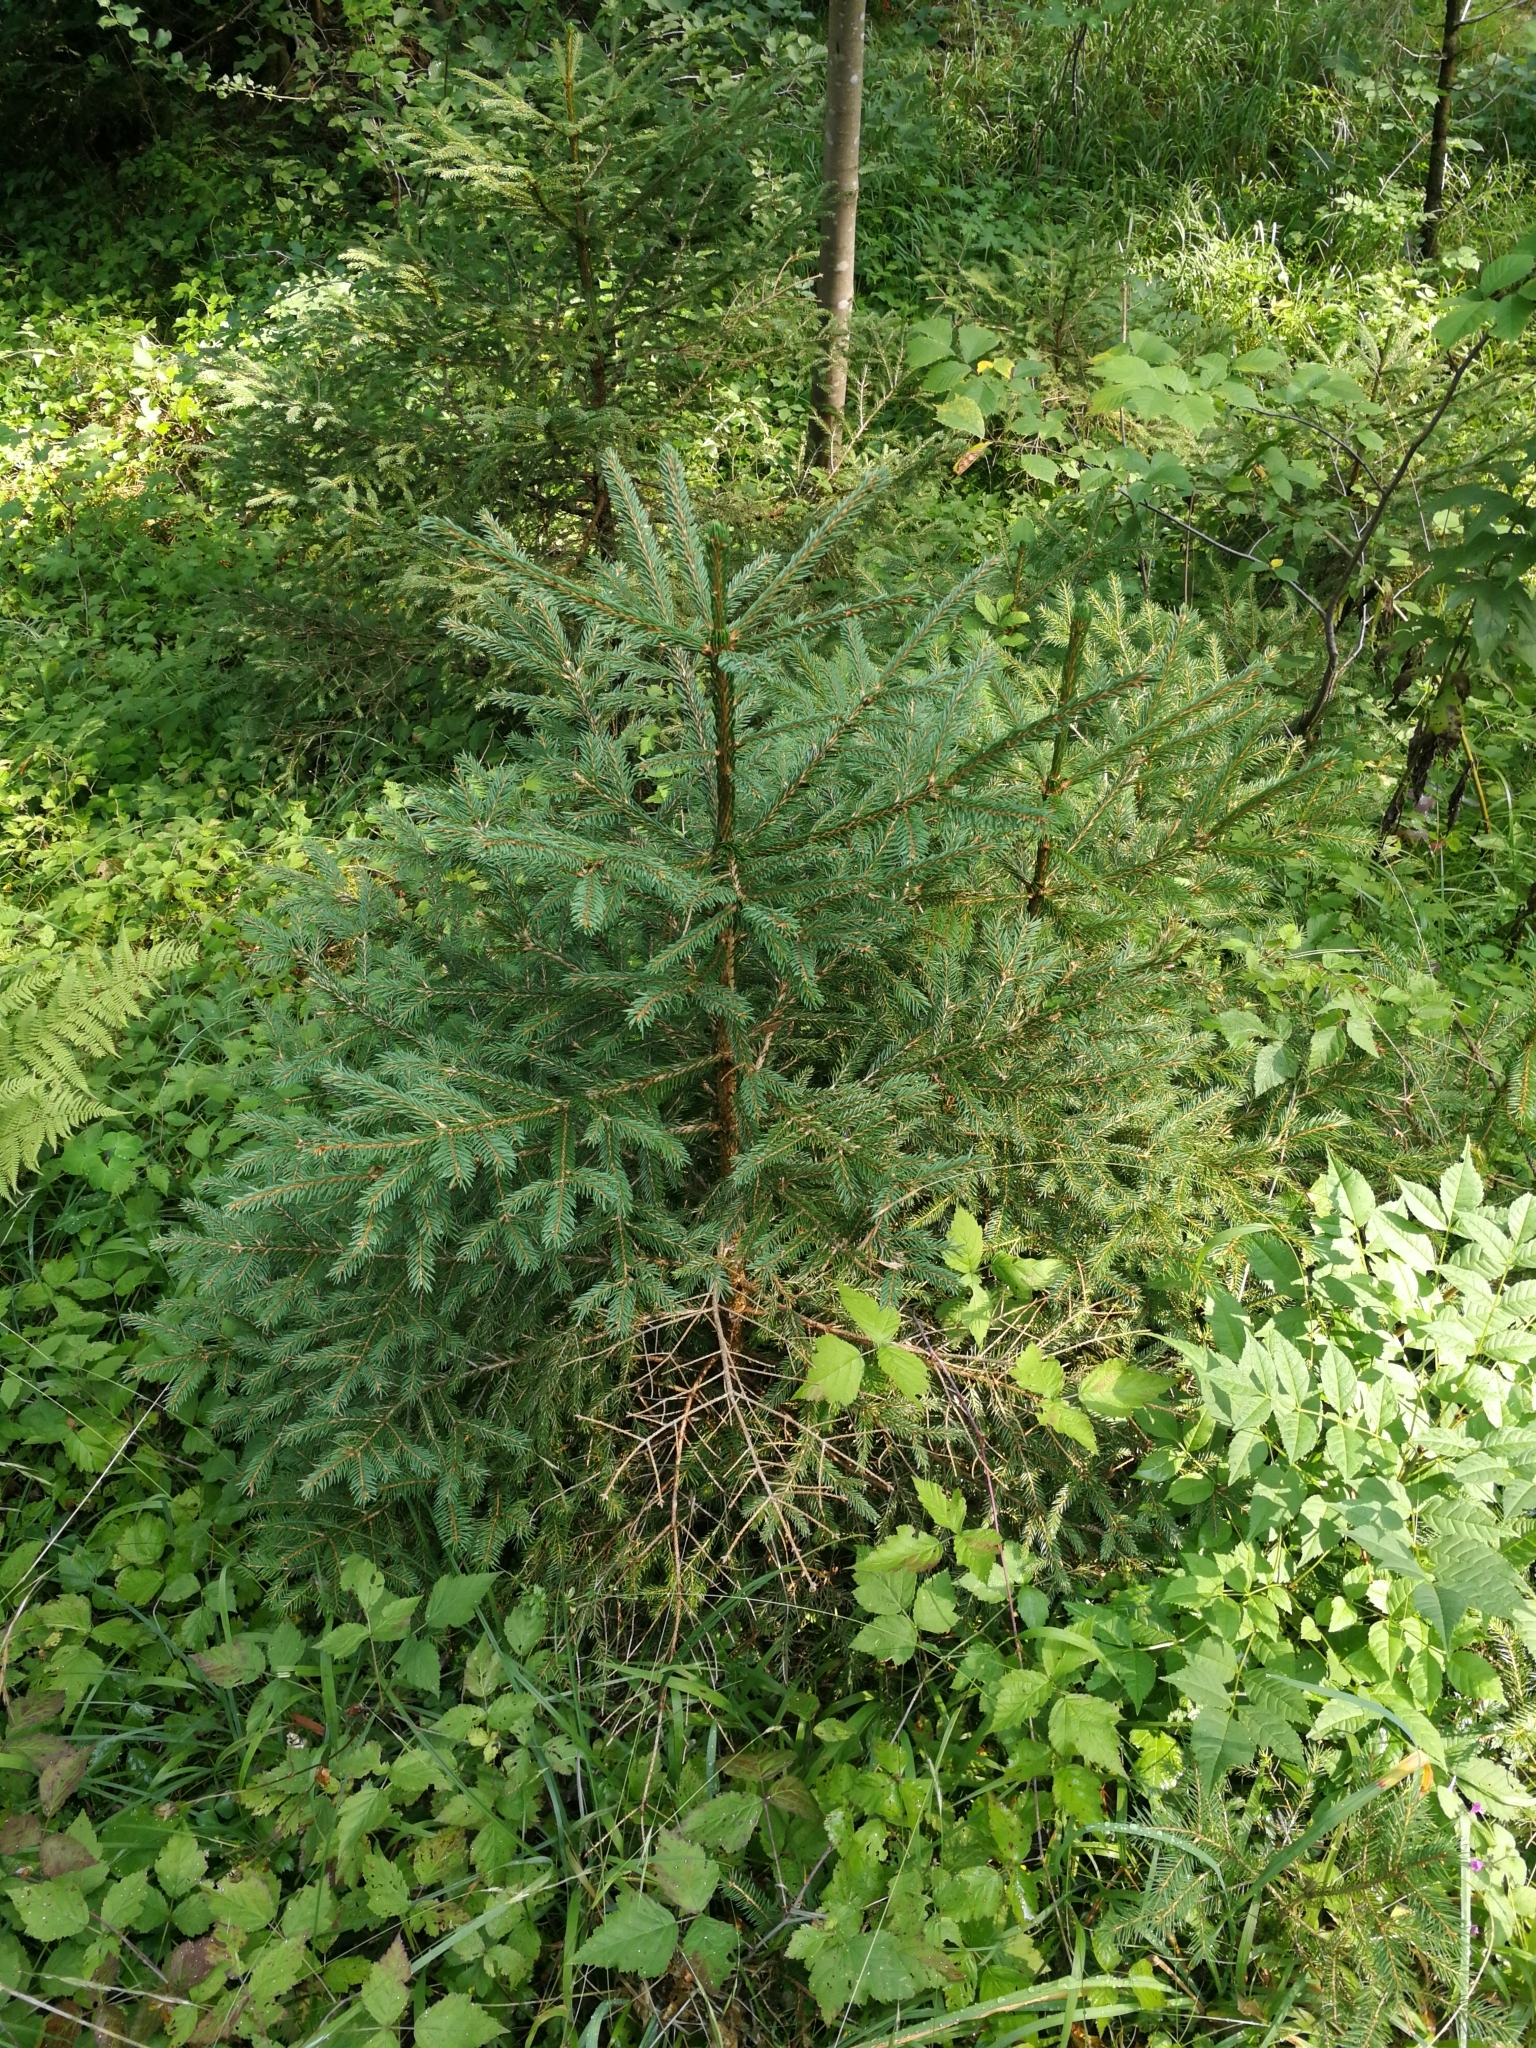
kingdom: Plantae
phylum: Tracheophyta
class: Pinopsida
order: Pinales
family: Pinaceae
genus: Picea
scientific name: Picea abies
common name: Norway spruce
